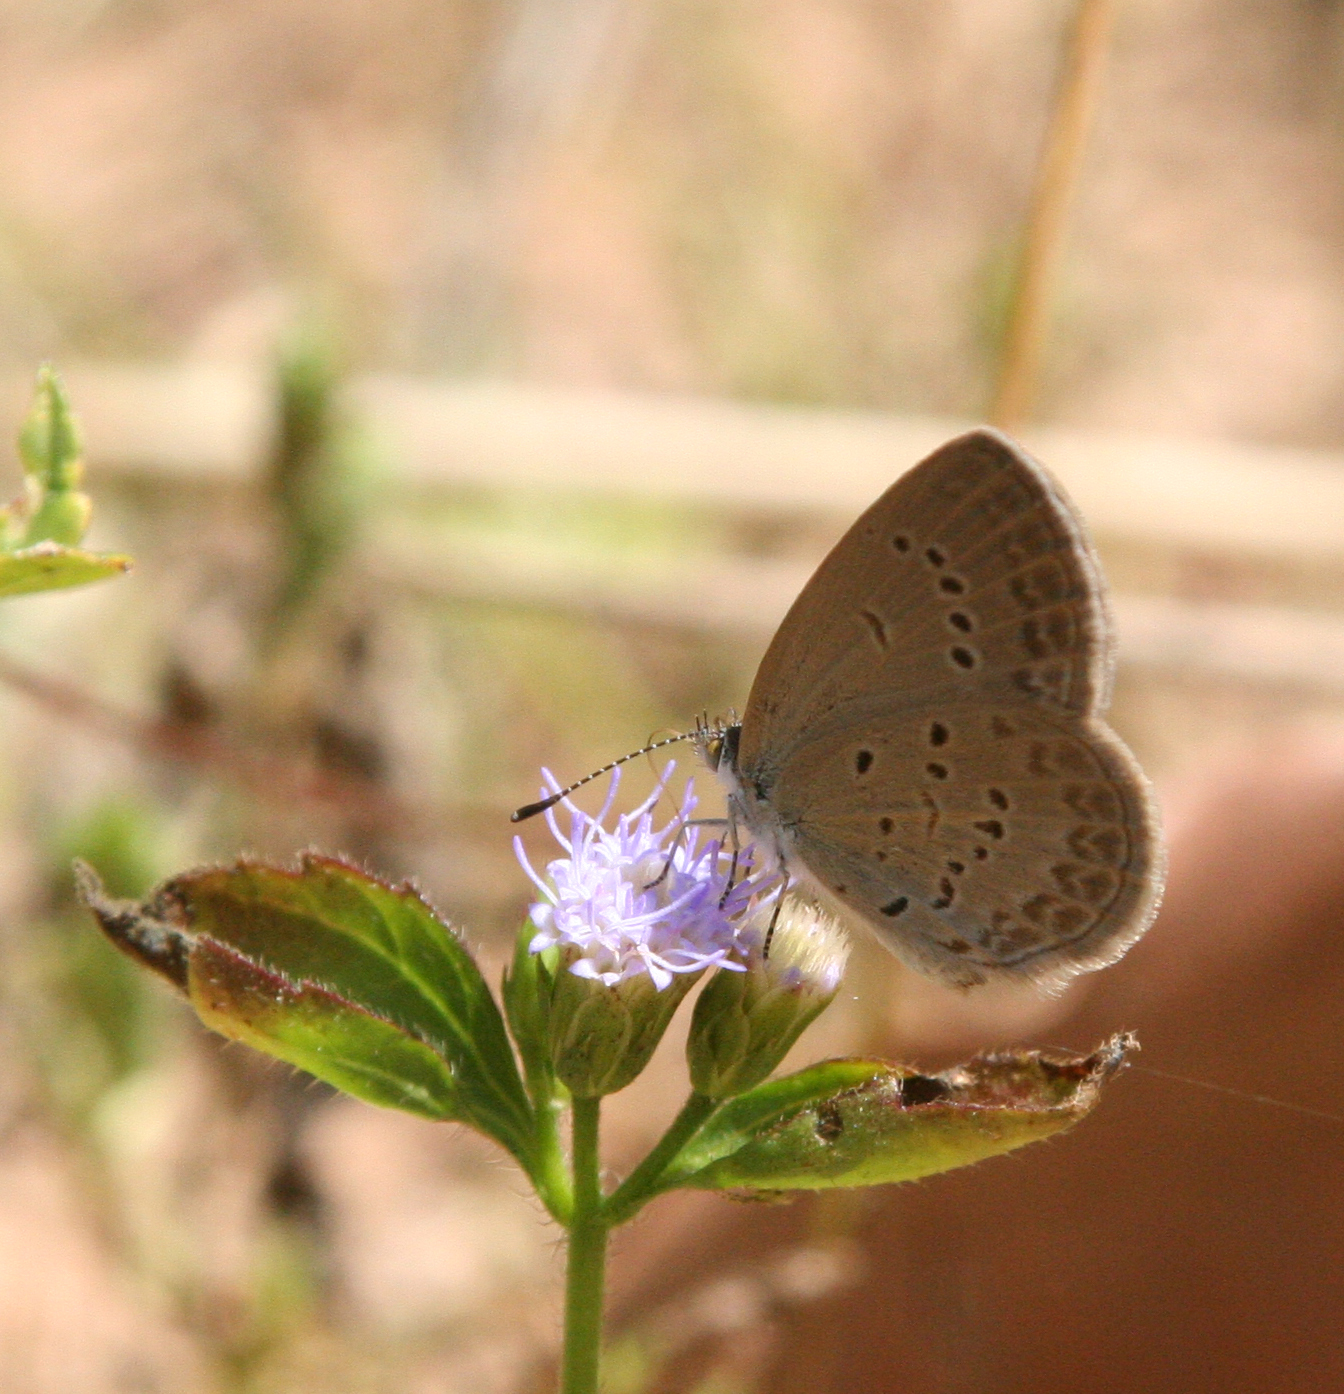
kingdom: Animalia
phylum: Arthropoda
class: Insecta
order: Lepidoptera
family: Lycaenidae
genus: Zizina
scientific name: Zizina otis
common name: Lesser grass blue
